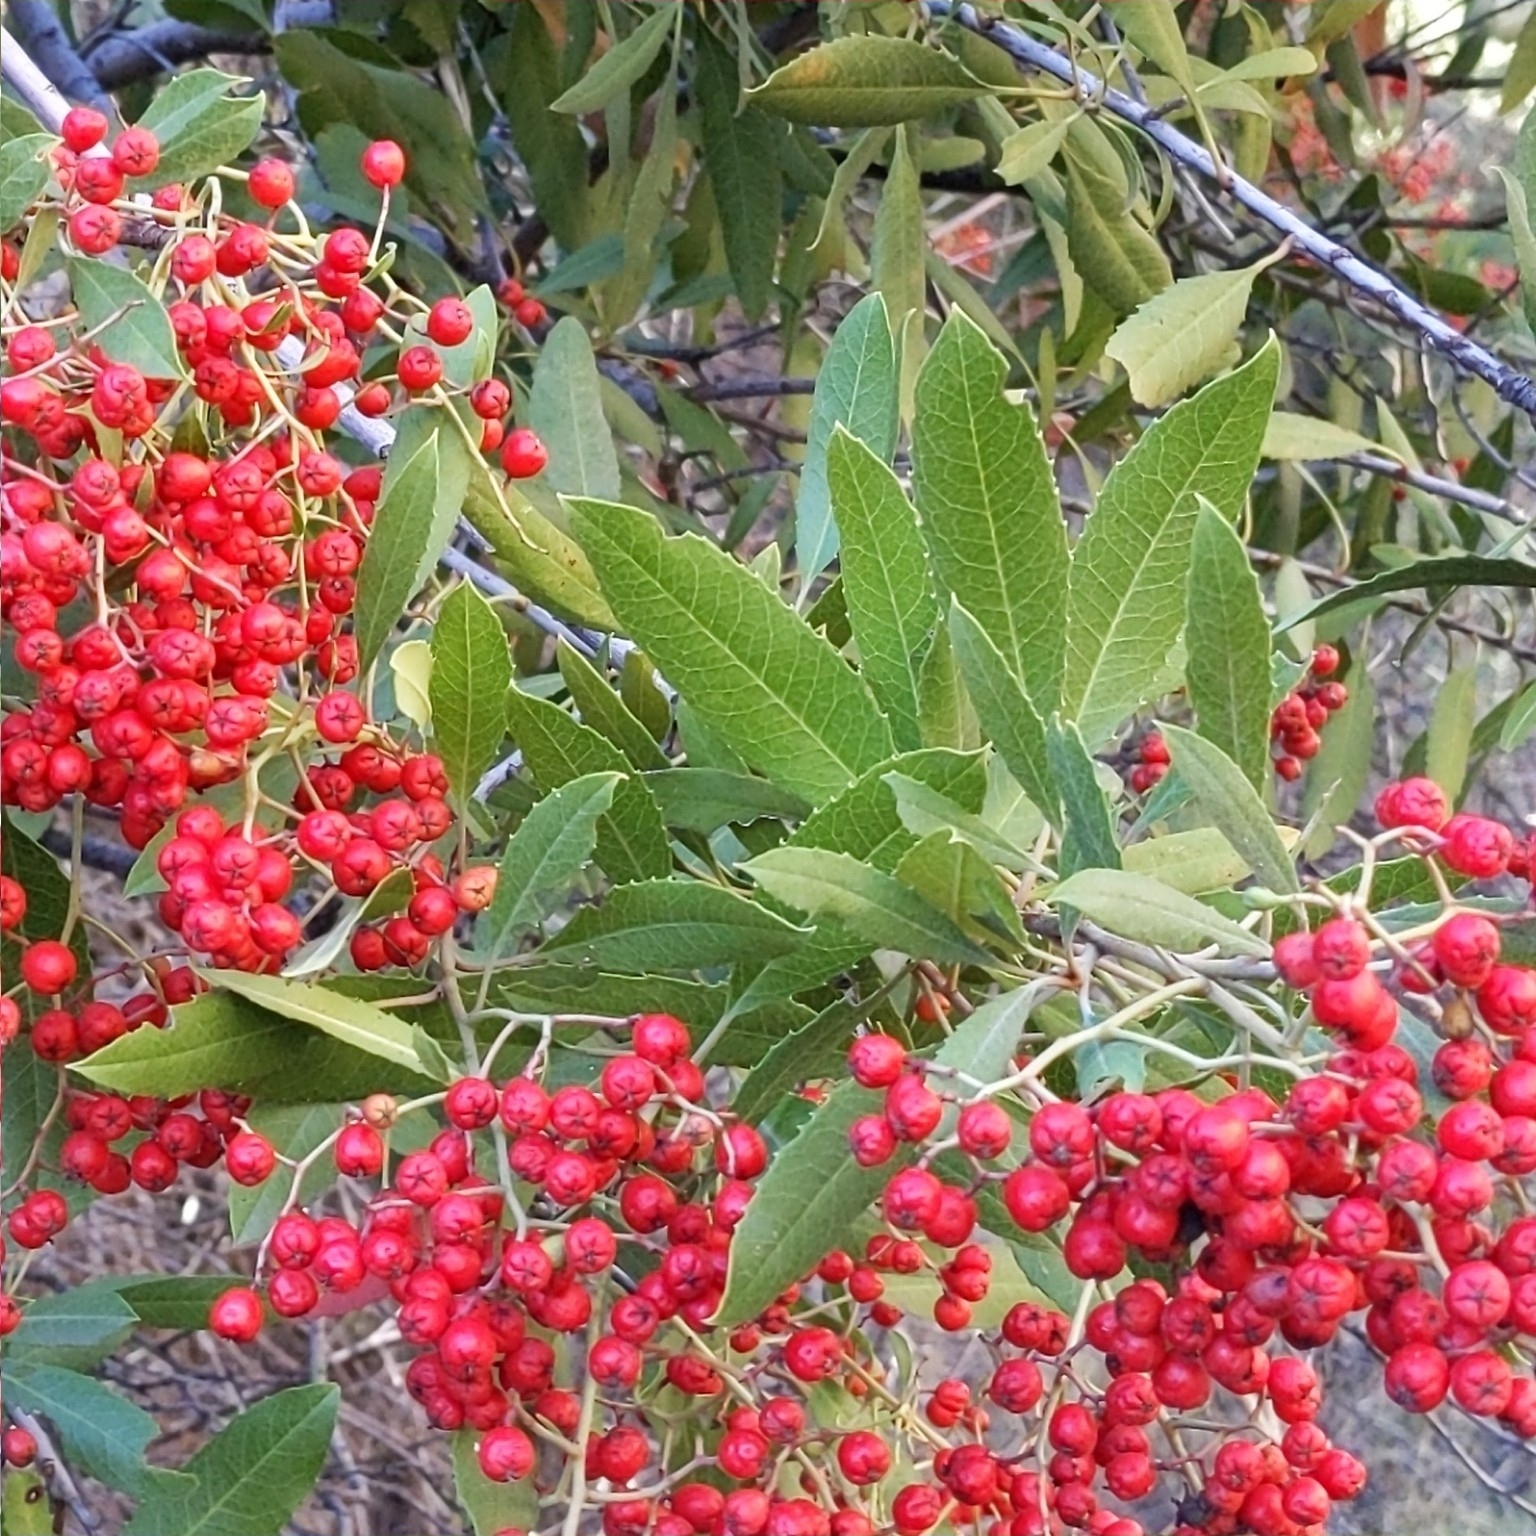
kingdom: Plantae
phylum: Tracheophyta
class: Magnoliopsida
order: Rosales
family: Rosaceae
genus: Heteromeles
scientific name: Heteromeles arbutifolia
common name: California-holly
